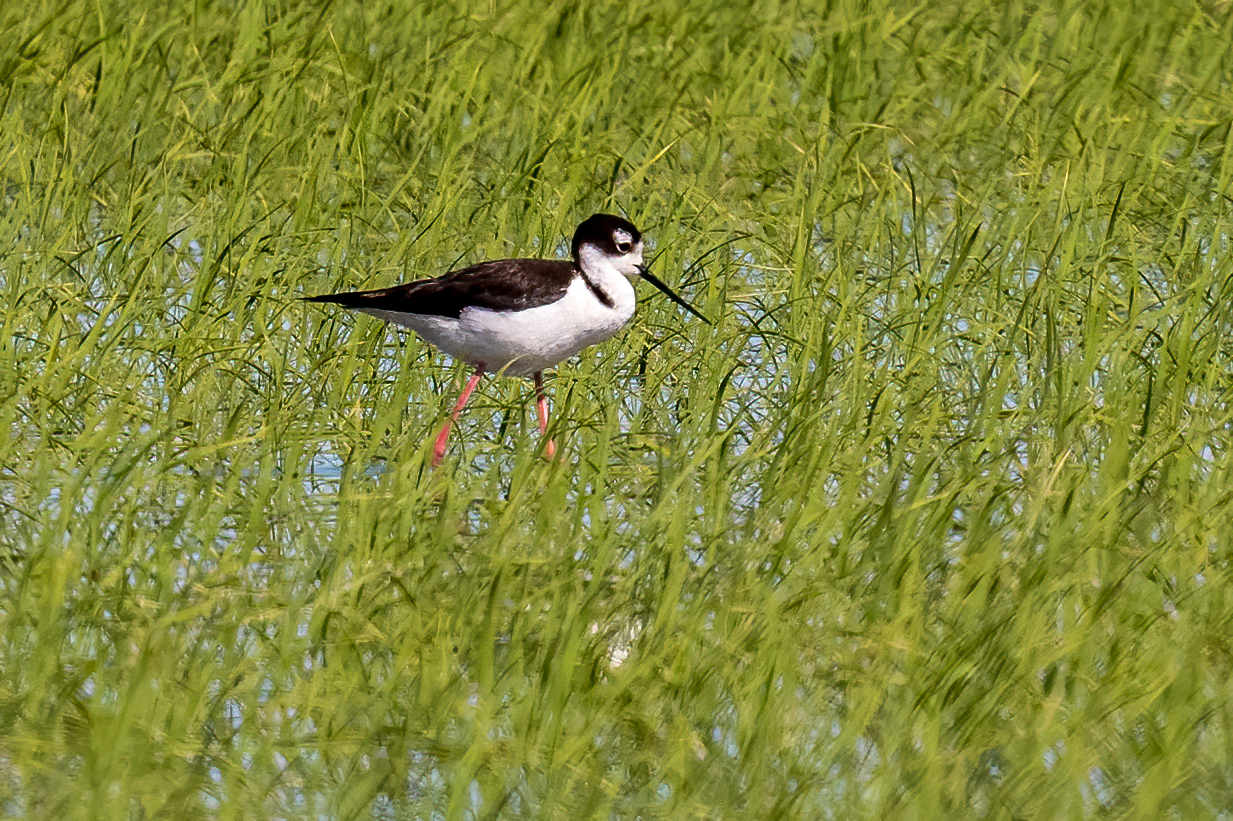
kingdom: Animalia
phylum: Chordata
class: Aves
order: Charadriiformes
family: Recurvirostridae
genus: Himantopus
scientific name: Himantopus mexicanus
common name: Black-necked stilt
